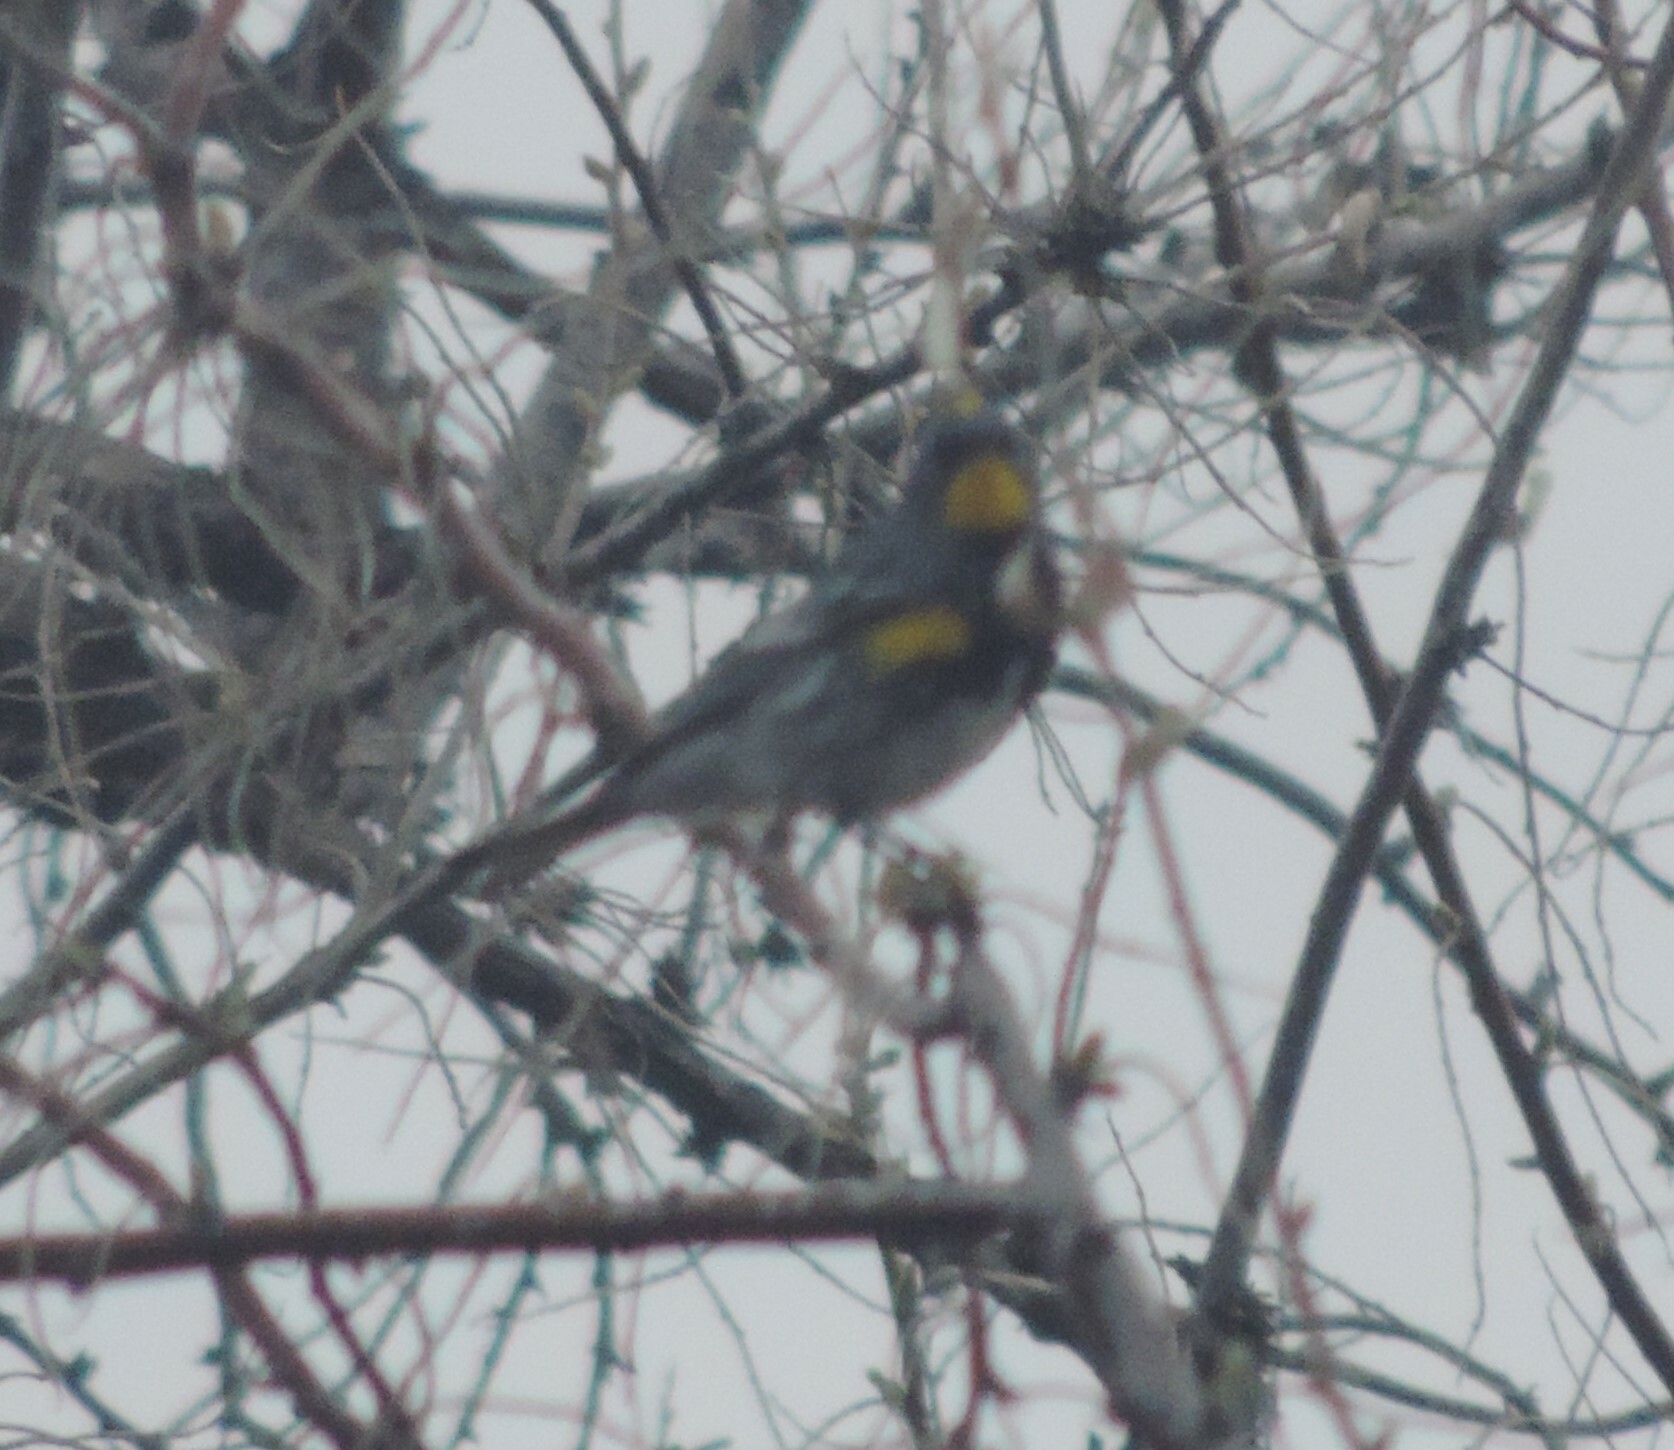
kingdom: Animalia
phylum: Chordata
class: Aves
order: Passeriformes
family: Parulidae
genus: Setophaga
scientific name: Setophaga auduboni
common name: Audubon's warbler
